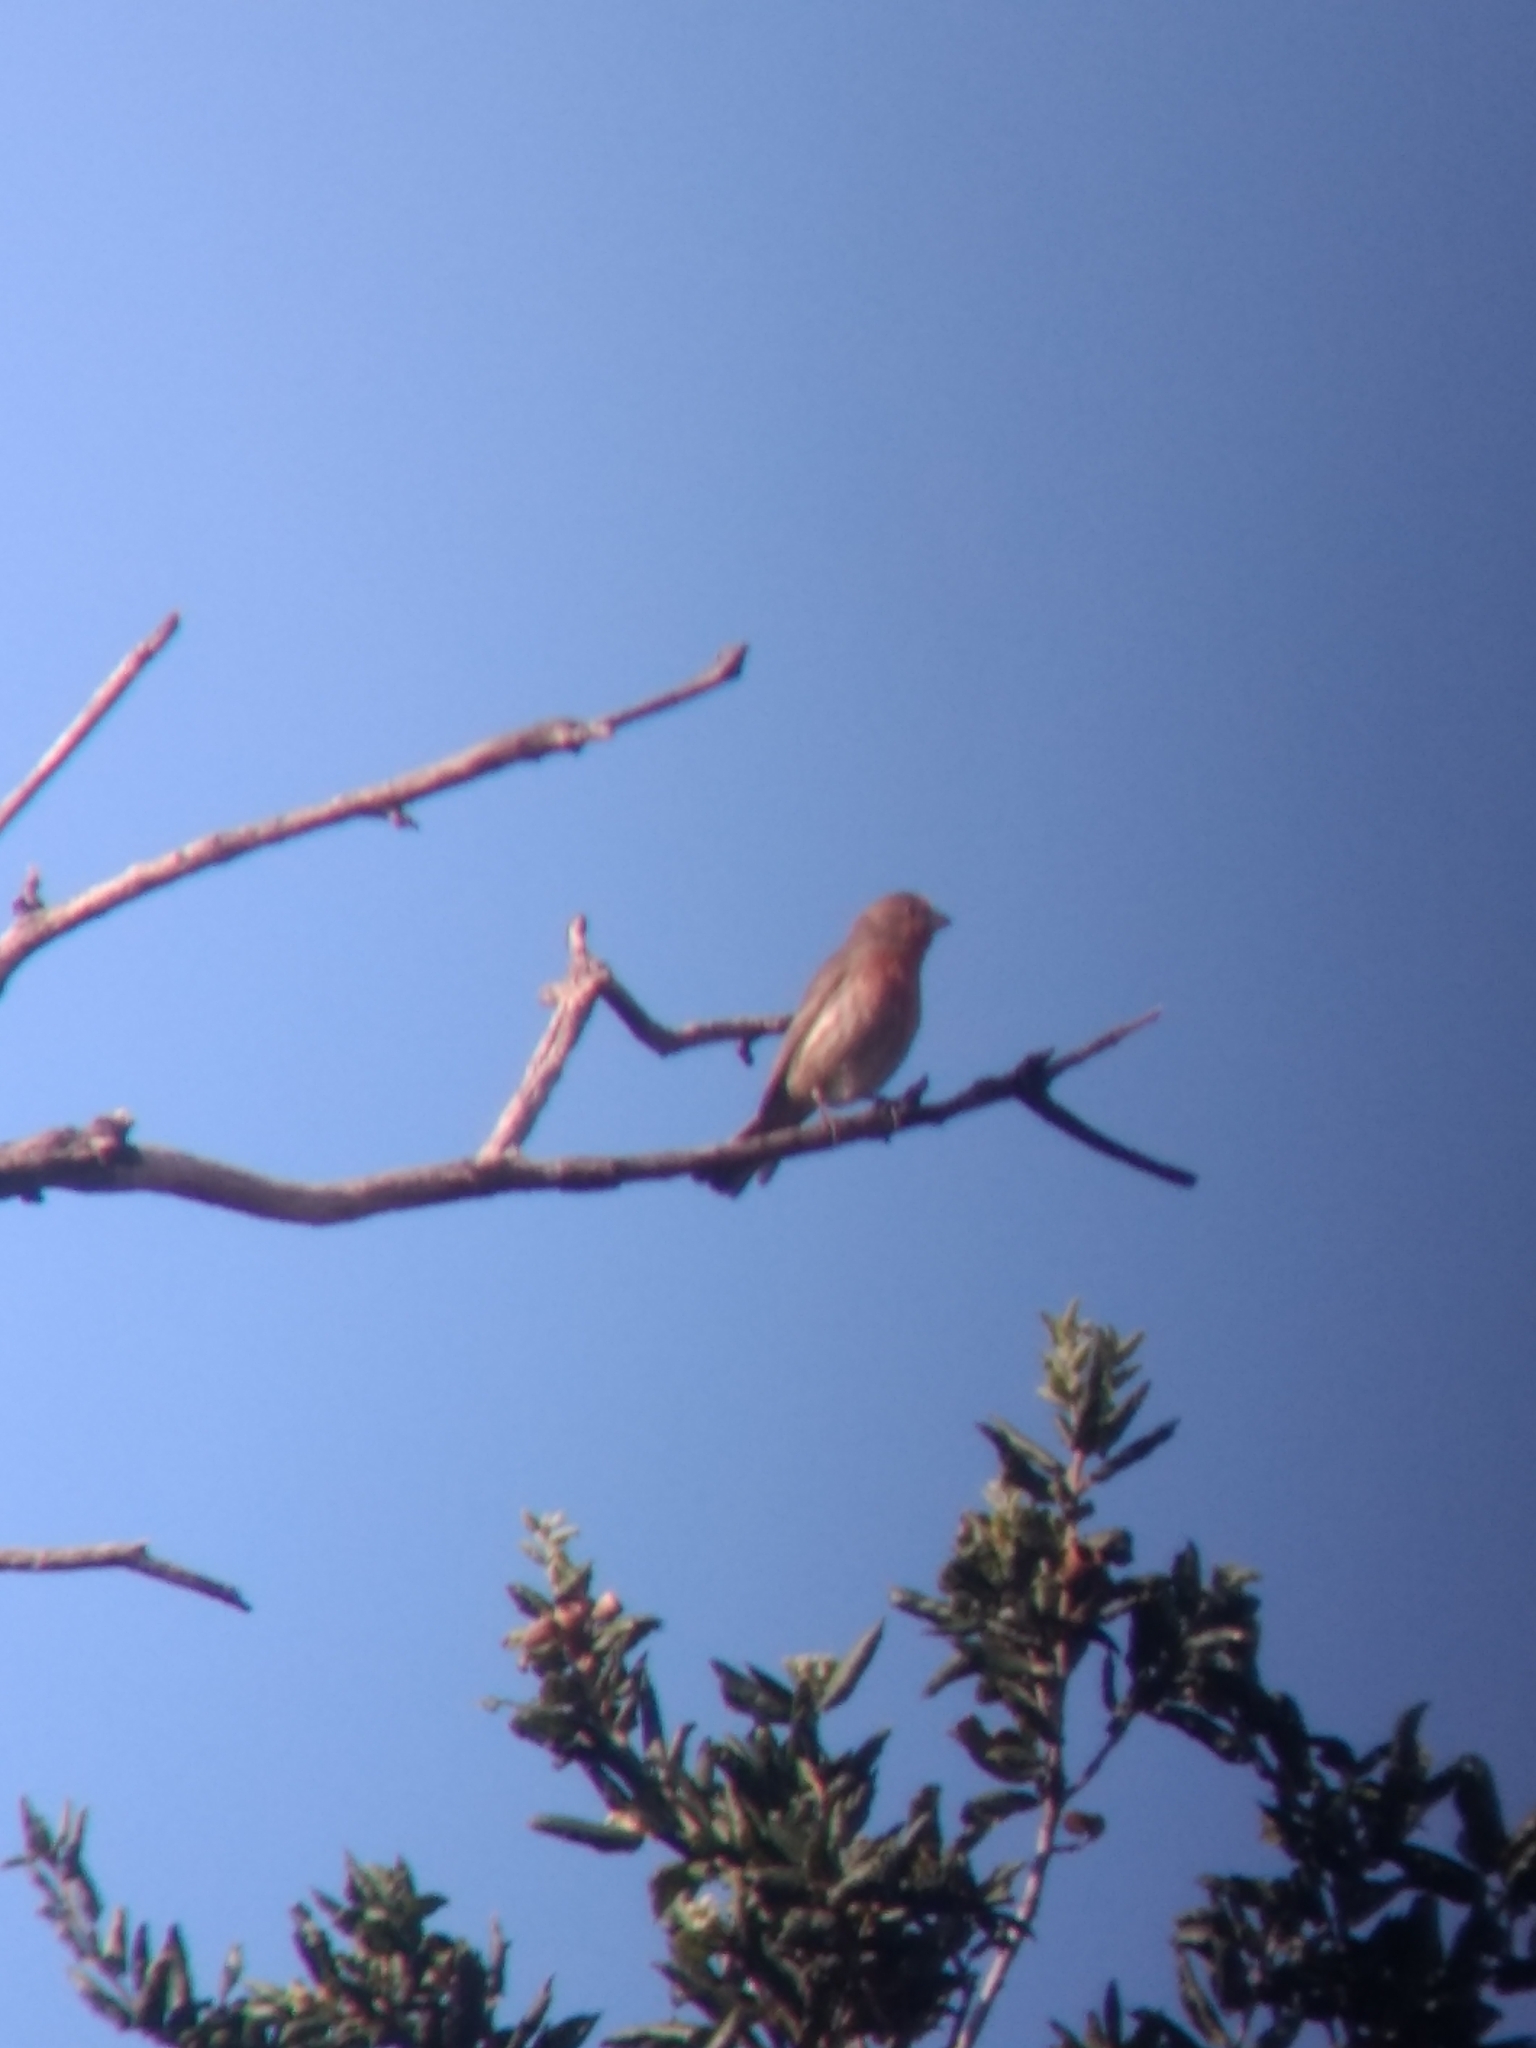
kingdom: Animalia
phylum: Chordata
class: Aves
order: Passeriformes
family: Fringillidae
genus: Haemorhous
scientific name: Haemorhous mexicanus
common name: House finch
